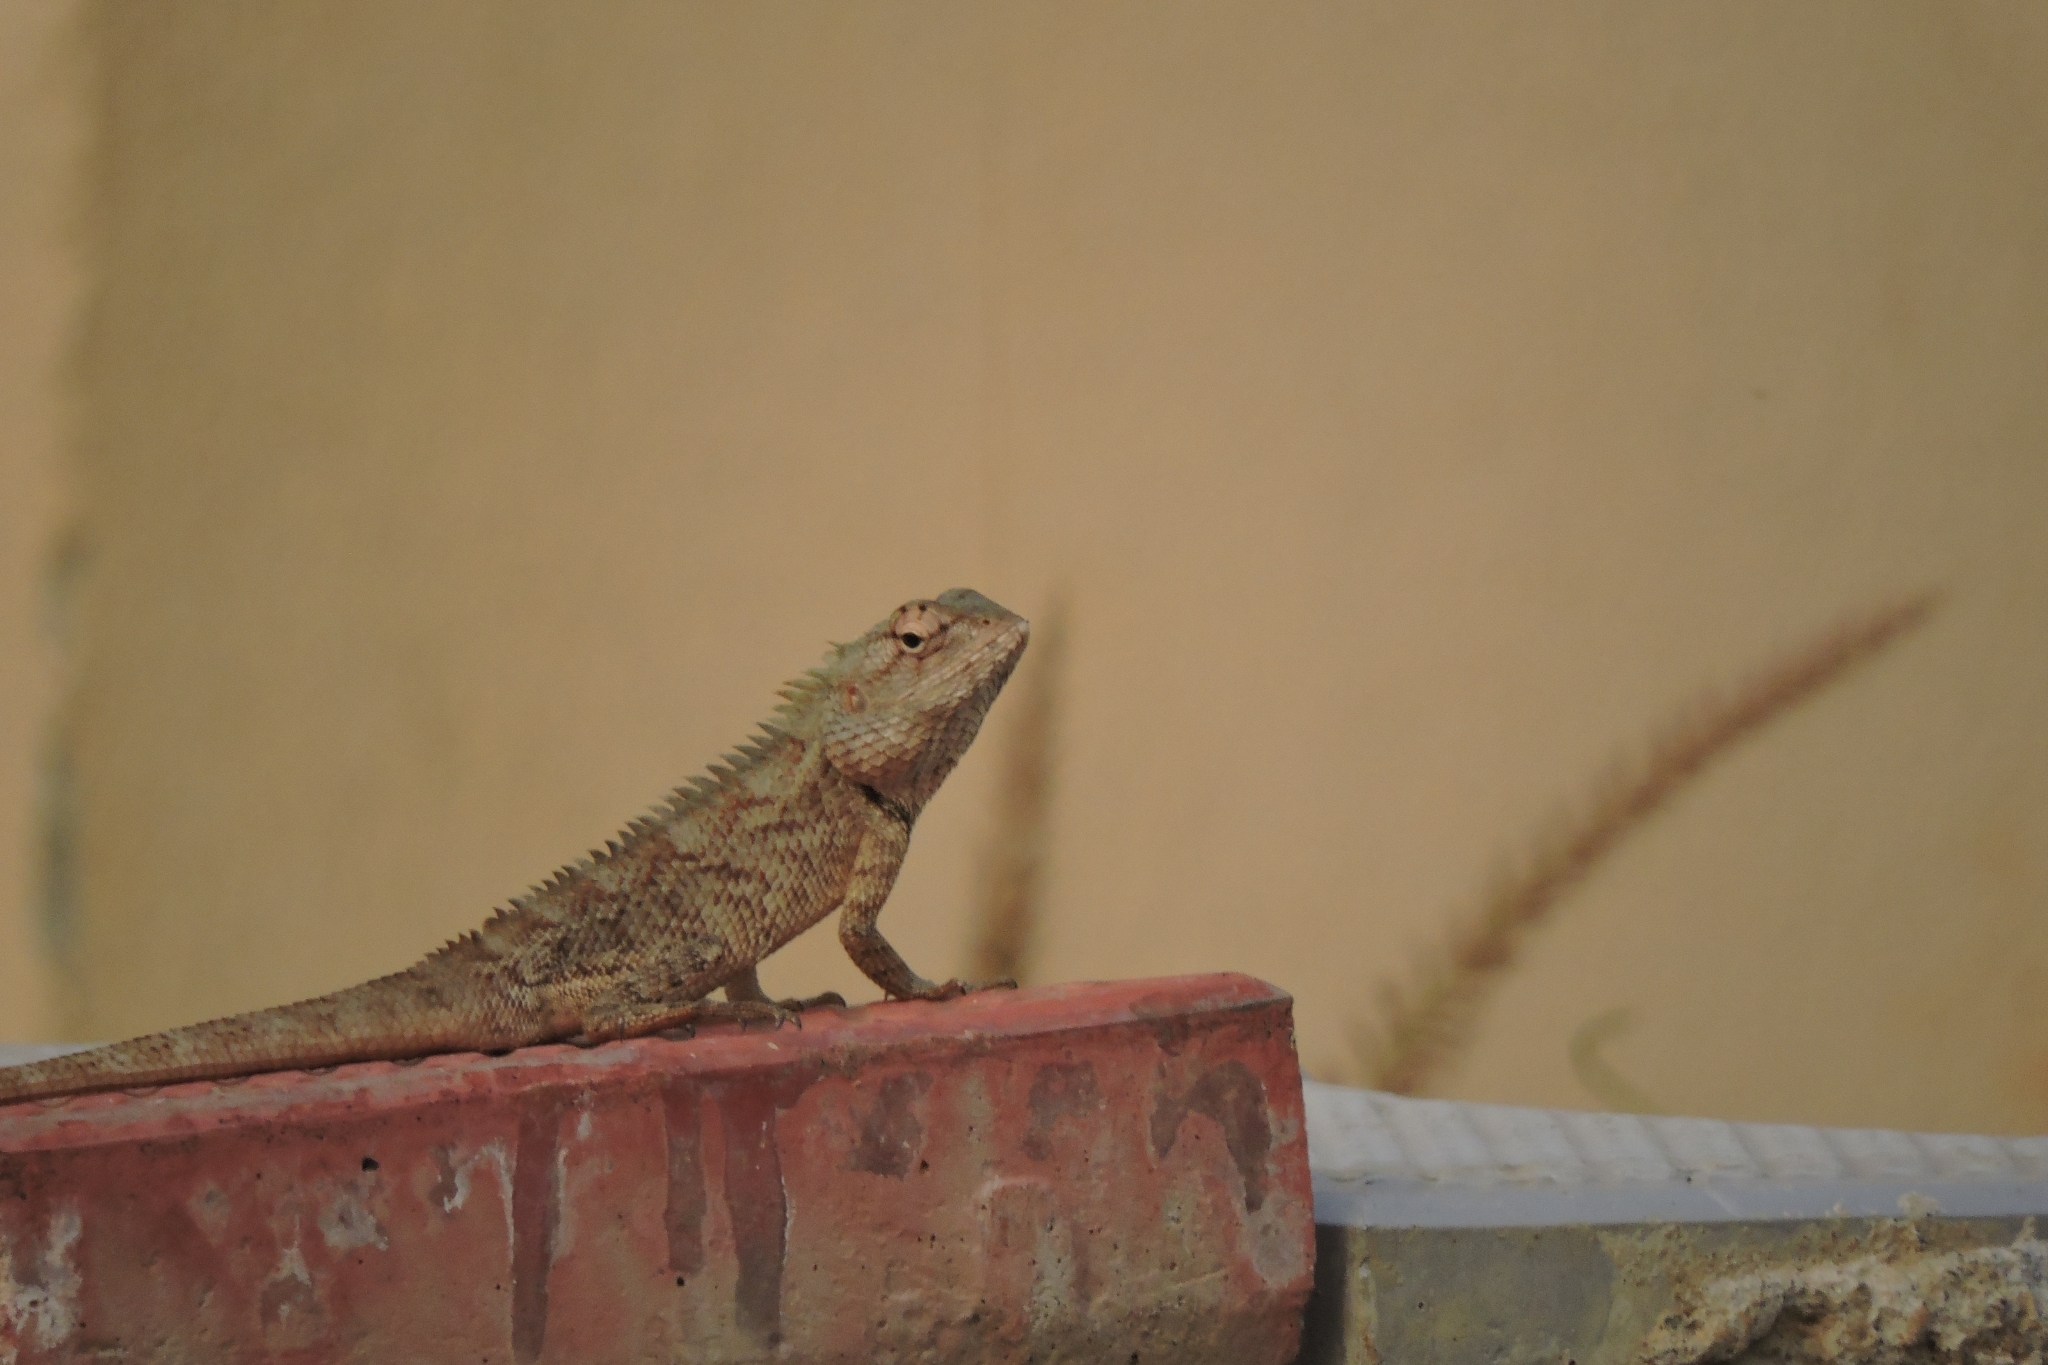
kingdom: Animalia
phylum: Chordata
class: Squamata
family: Agamidae
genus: Calotes
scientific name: Calotes versicolor
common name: Oriental garden lizard
